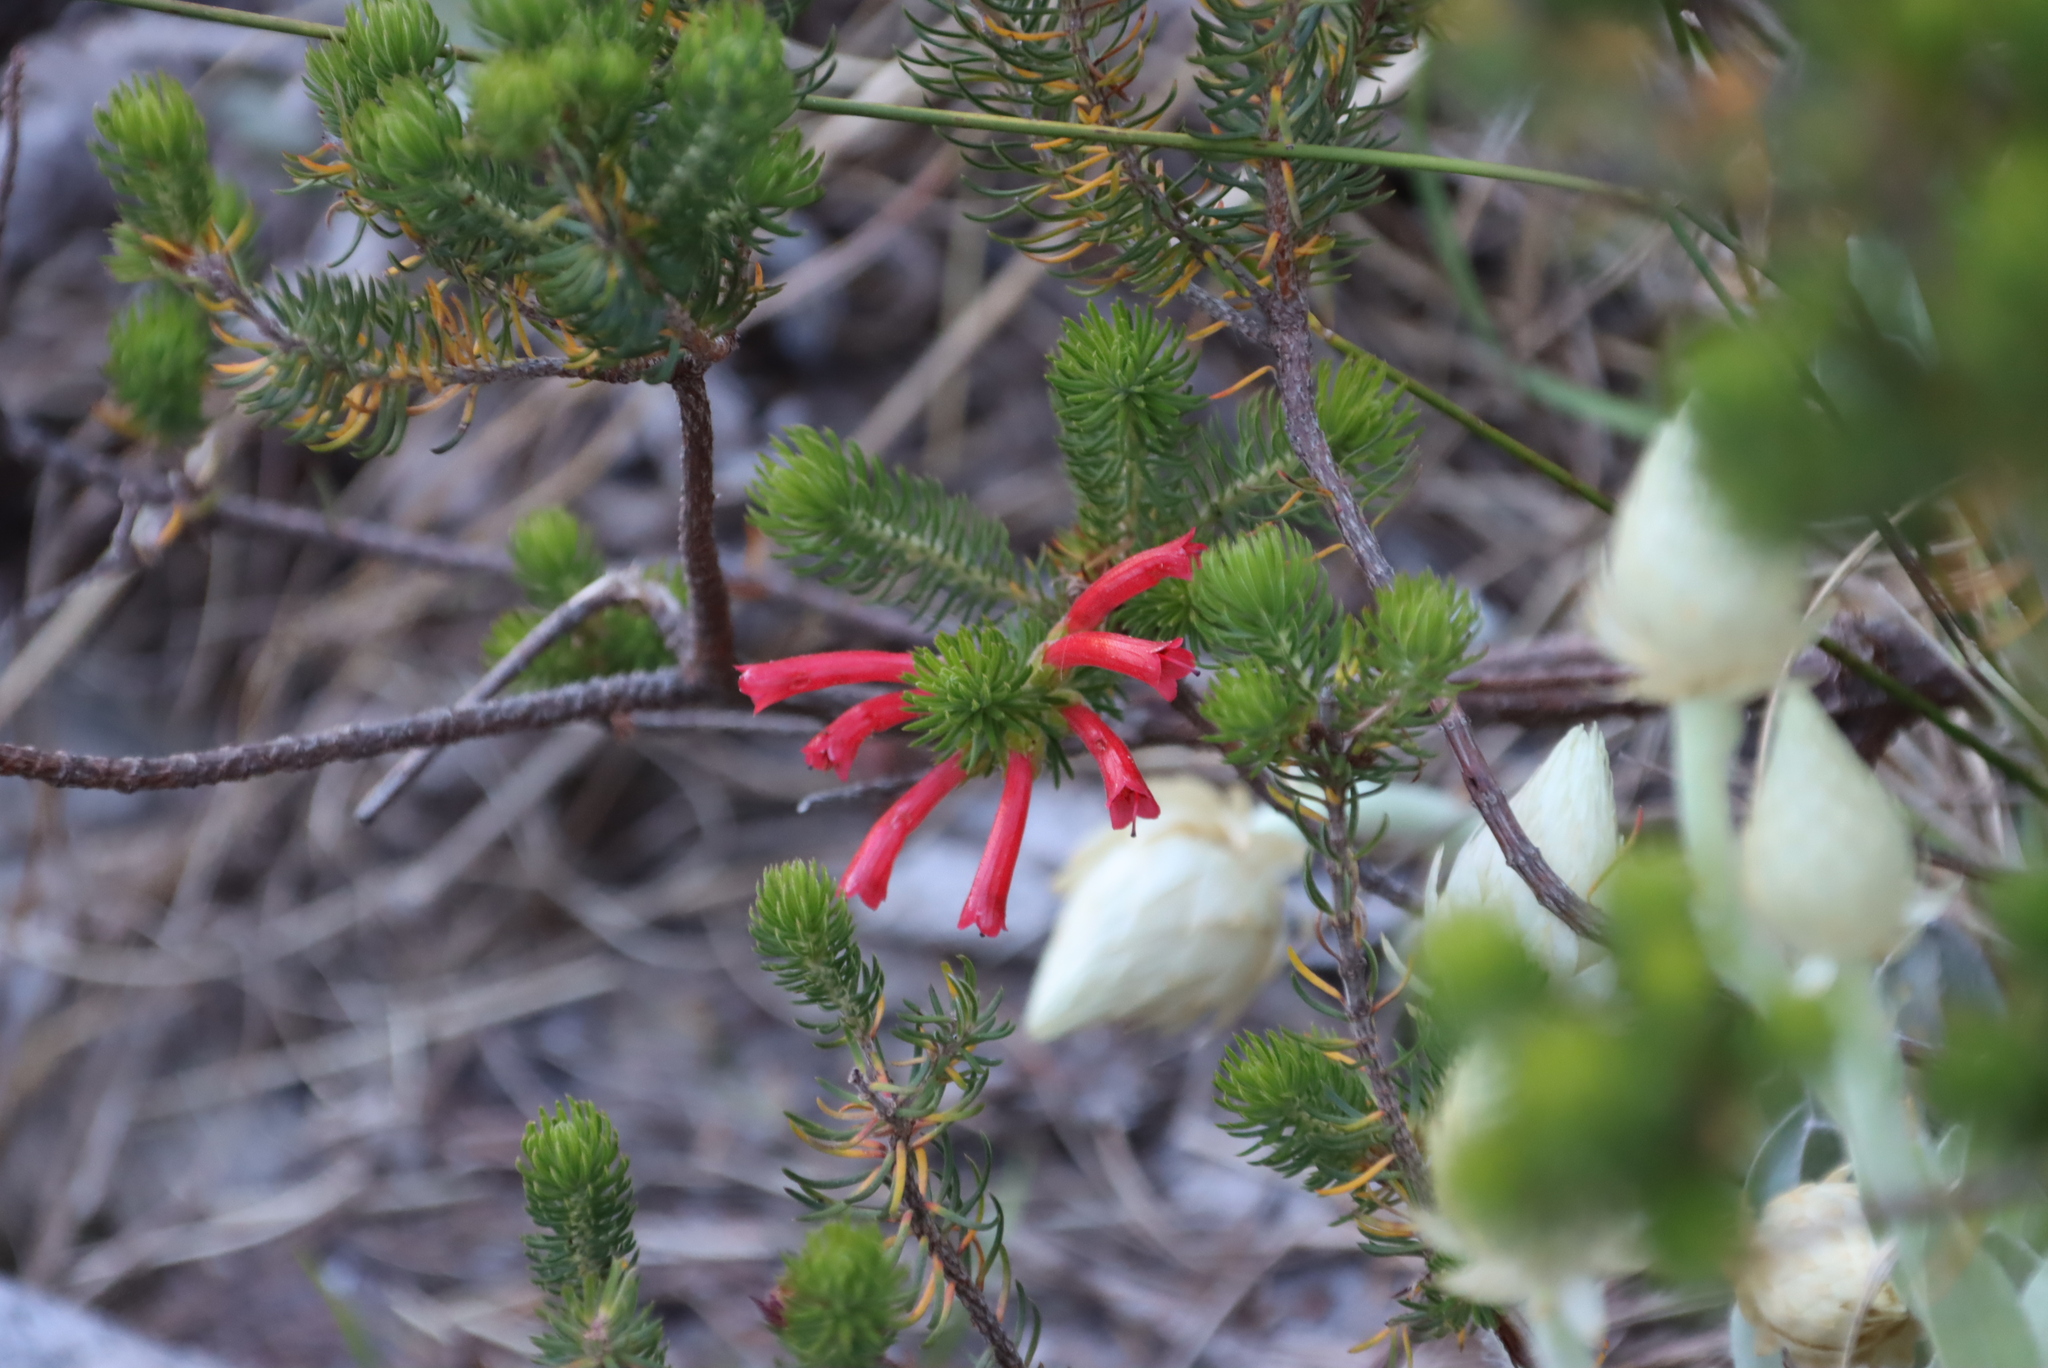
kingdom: Plantae
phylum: Tracheophyta
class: Magnoliopsida
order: Ericales
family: Ericaceae
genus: Erica
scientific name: Erica abietina
